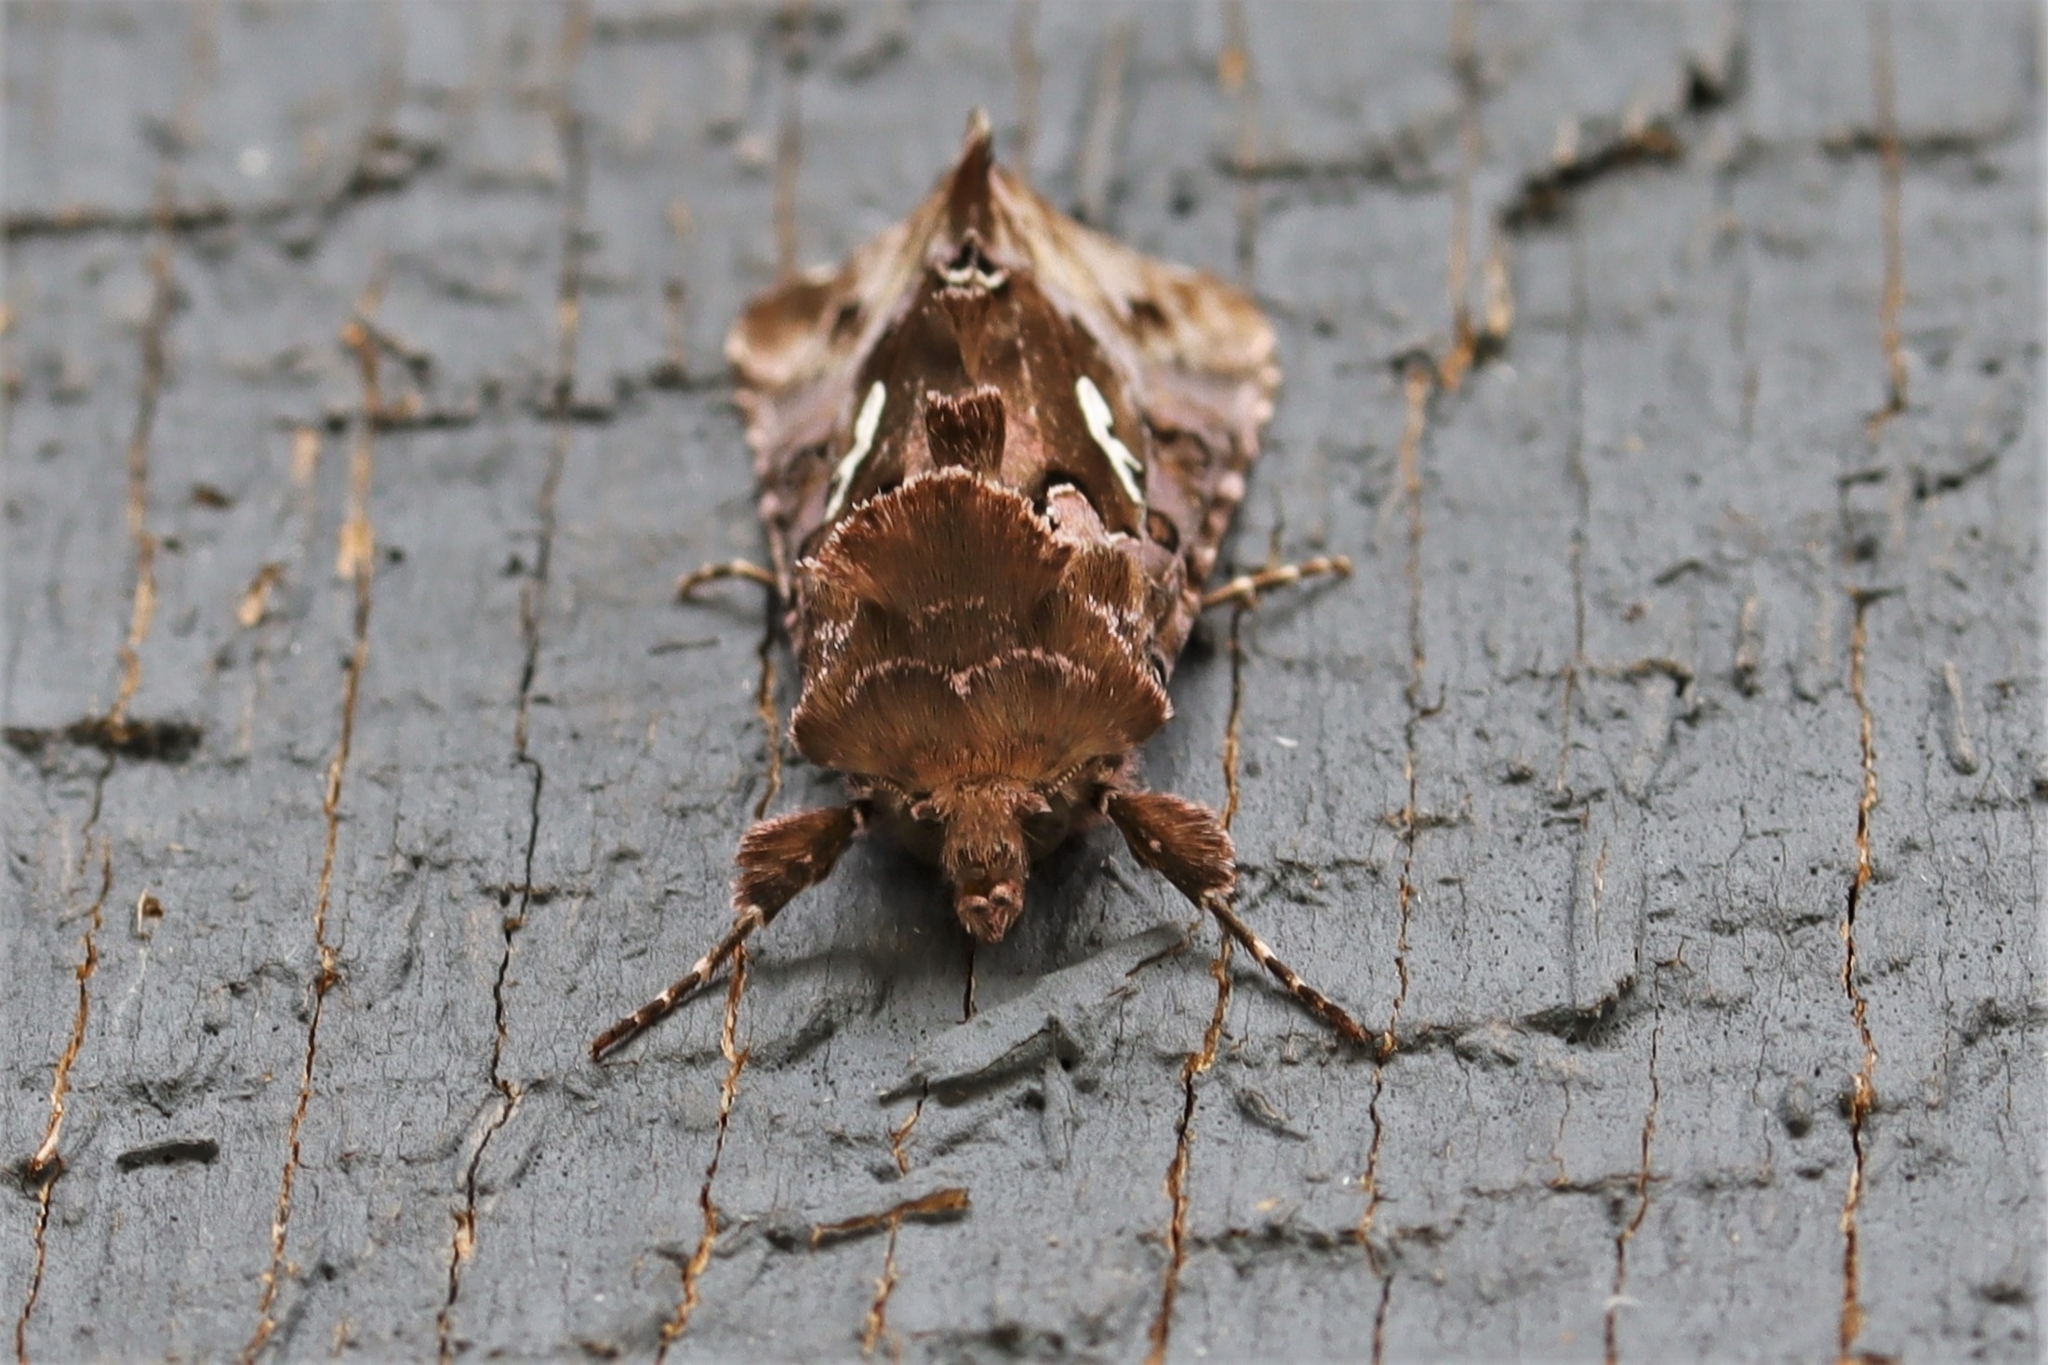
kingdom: Animalia
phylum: Arthropoda
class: Insecta
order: Lepidoptera
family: Noctuidae
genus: Autographa
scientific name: Autographa corusca
